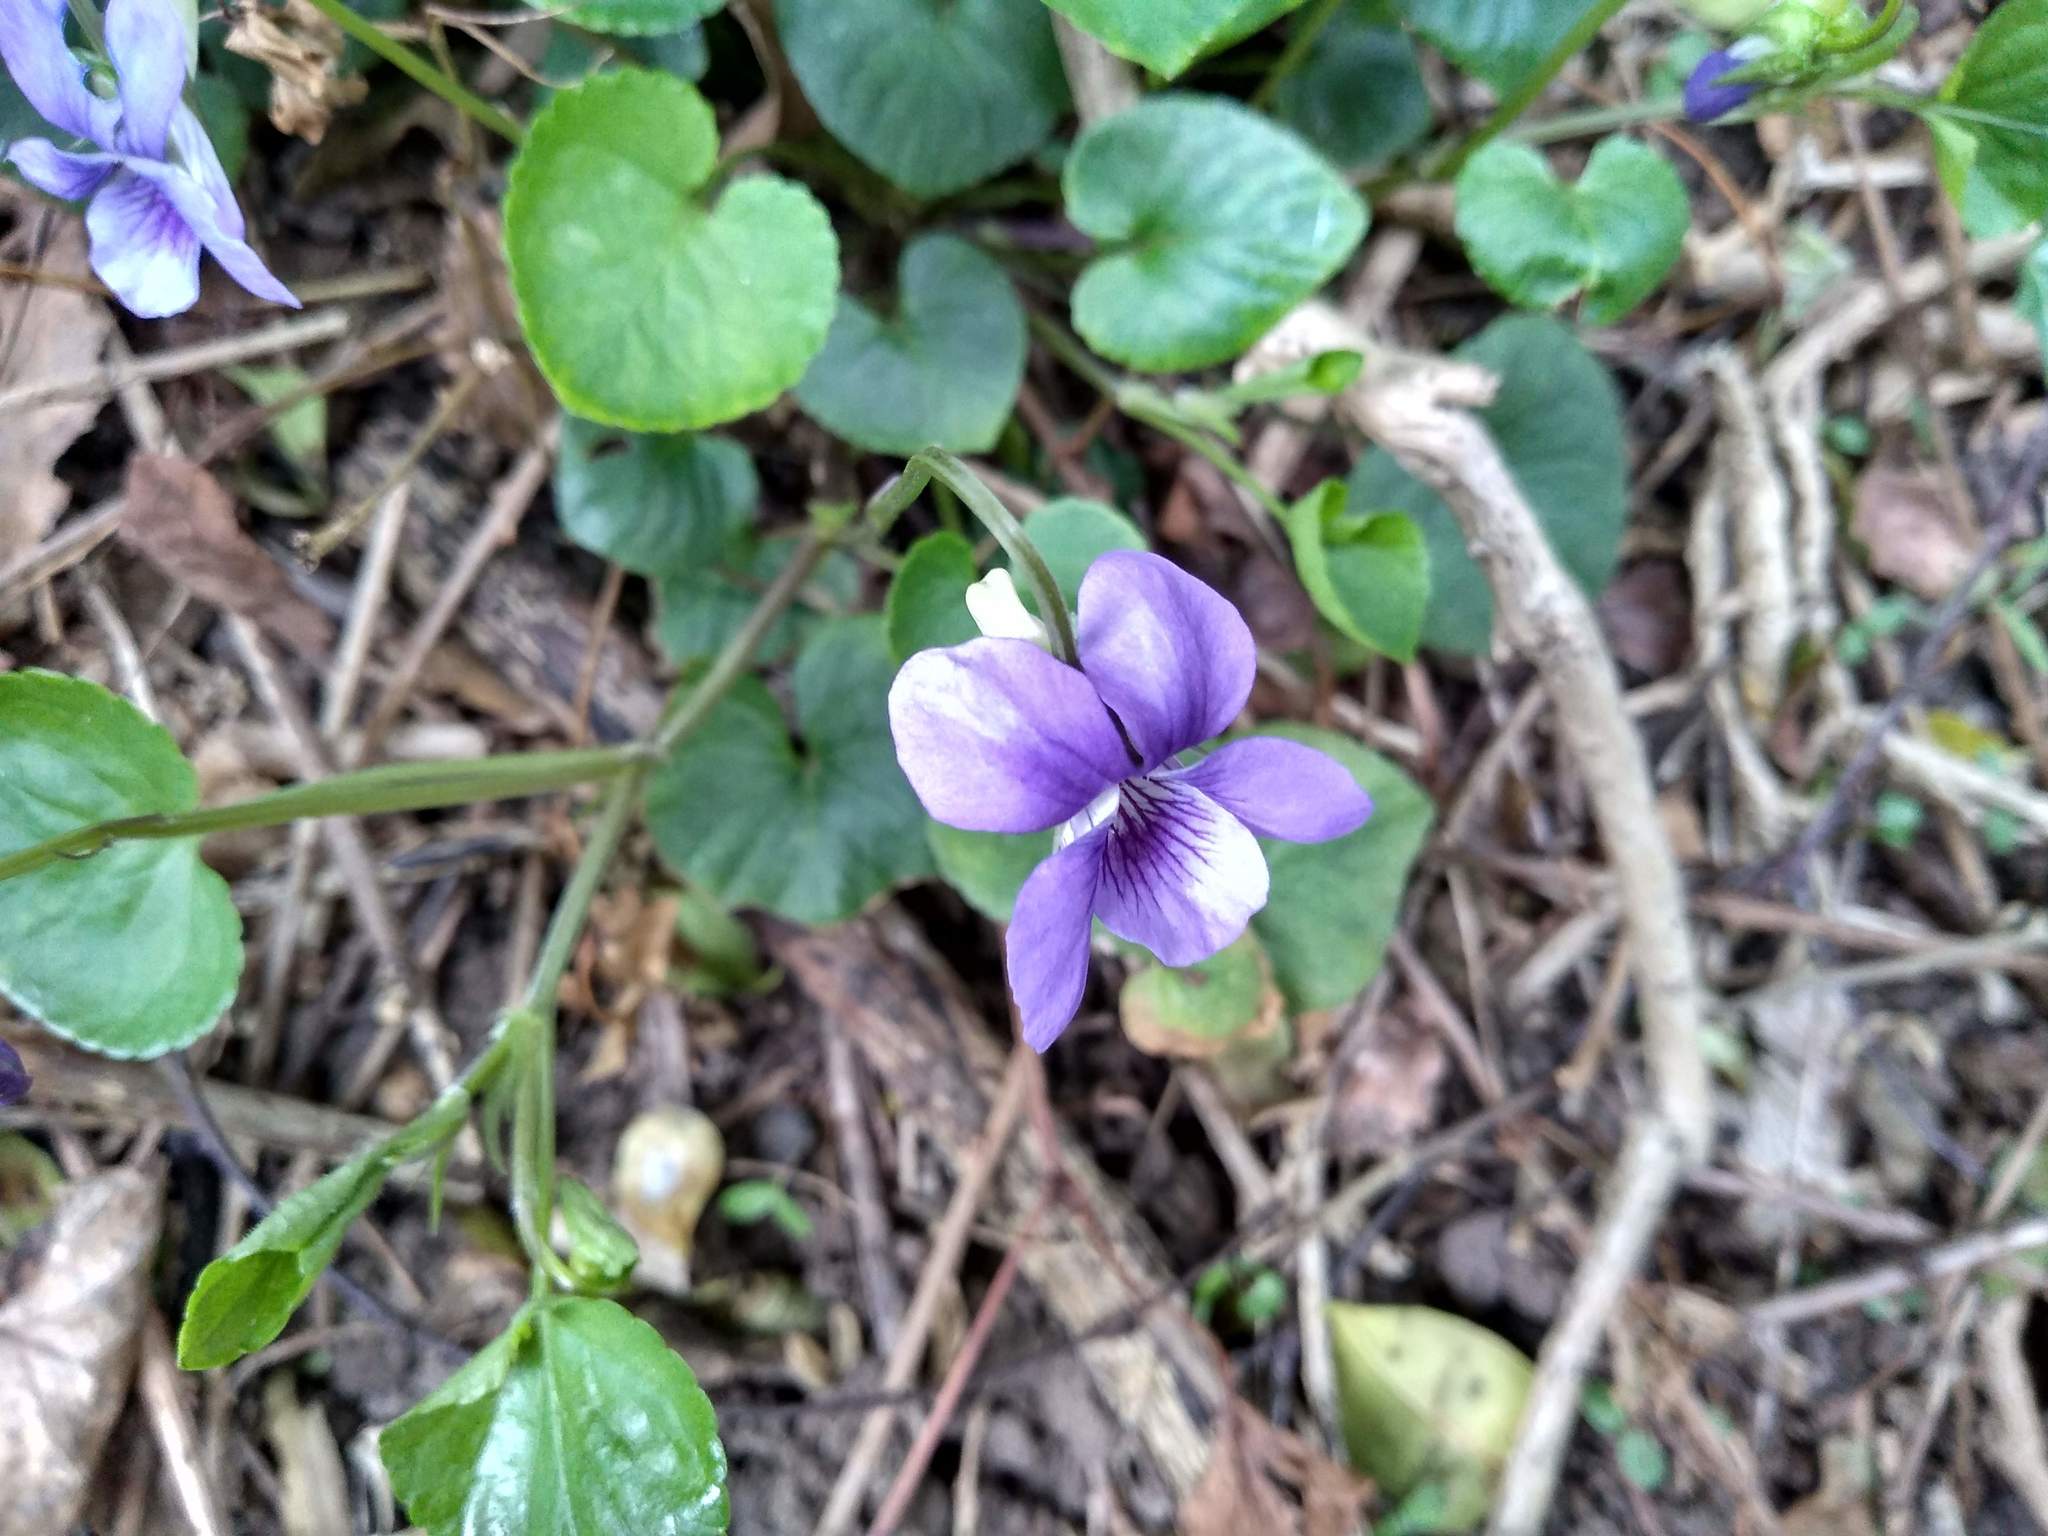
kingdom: Plantae
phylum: Tracheophyta
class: Magnoliopsida
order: Malpighiales
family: Violaceae
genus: Viola
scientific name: Viola riviniana
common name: Common dog-violet
